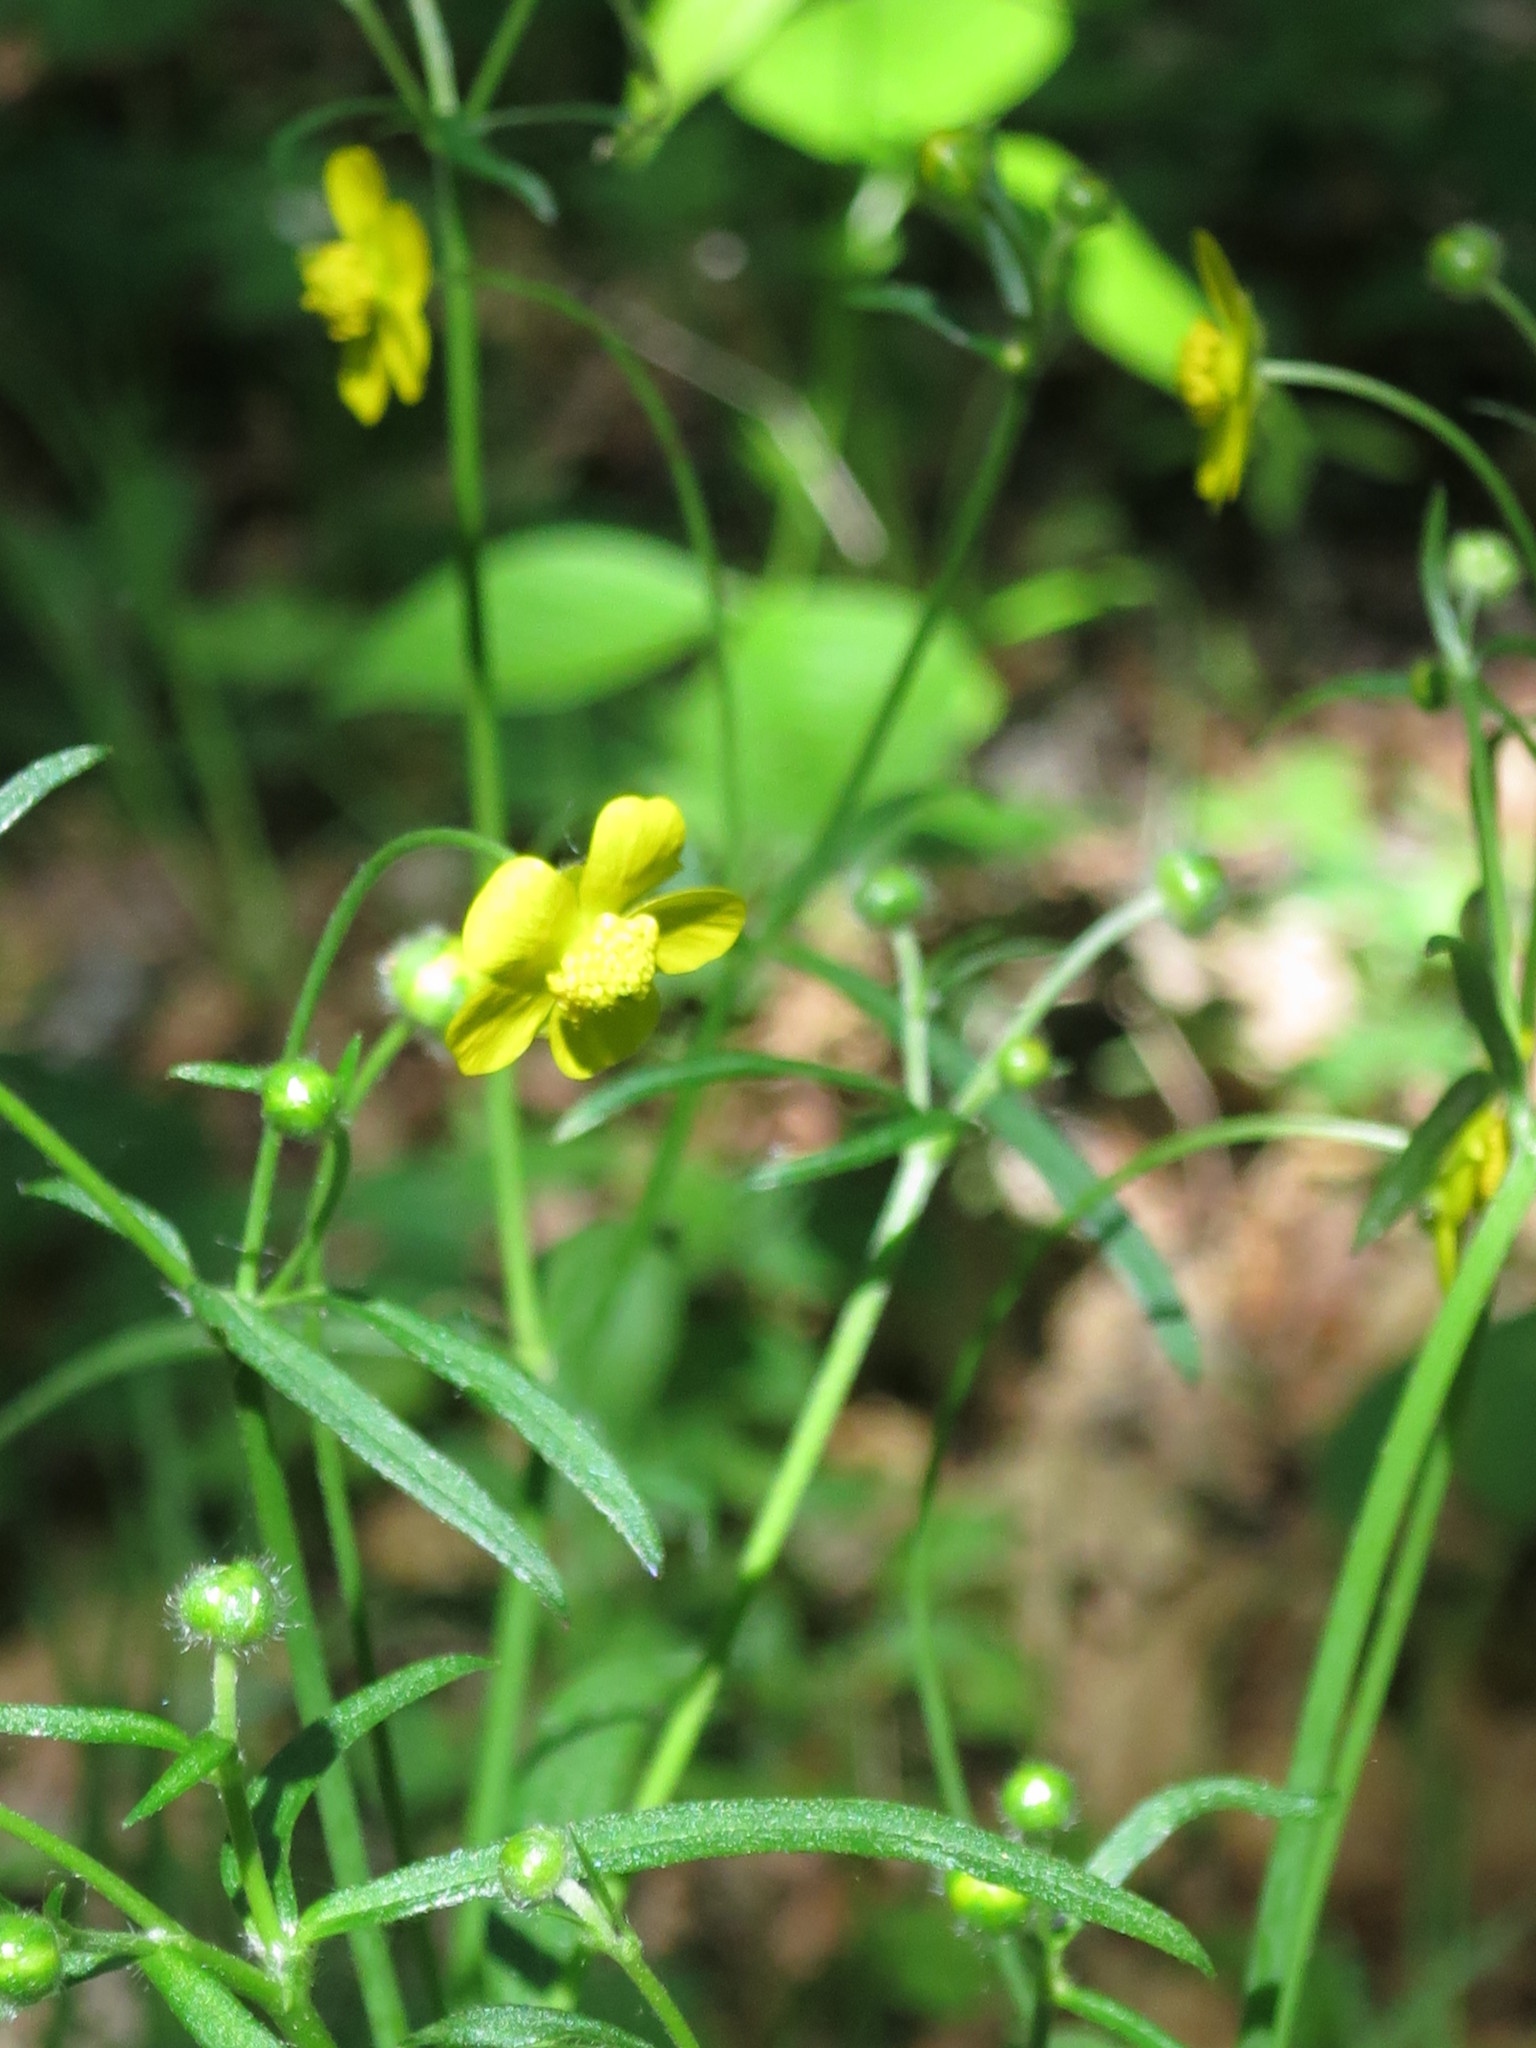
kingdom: Plantae
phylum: Tracheophyta
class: Magnoliopsida
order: Ranunculales
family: Ranunculaceae
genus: Ranunculus
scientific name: Ranunculus japonicus
